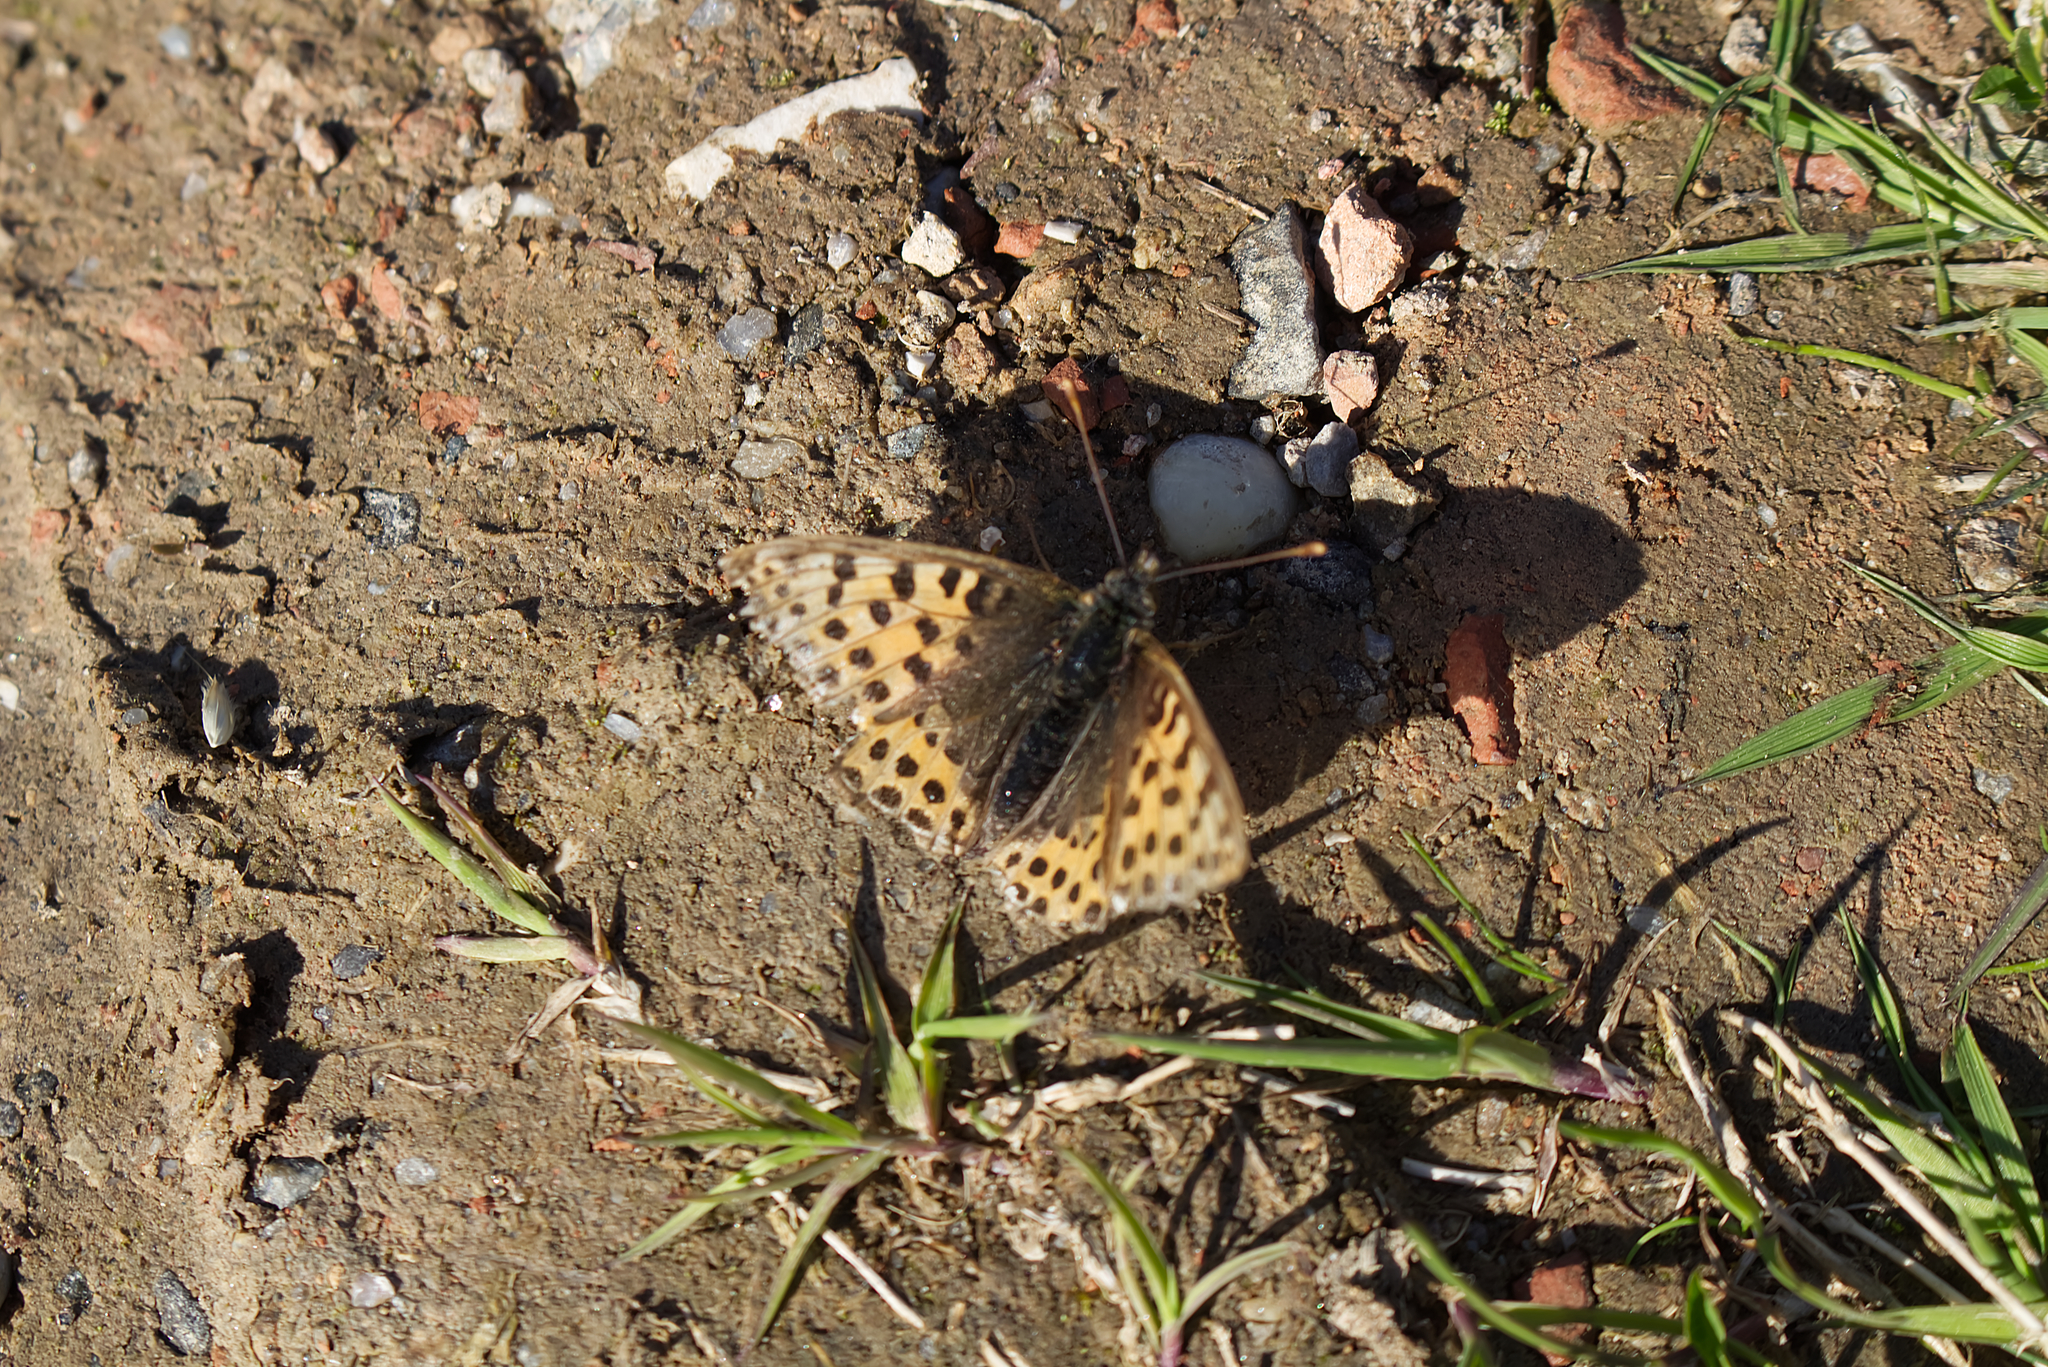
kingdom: Animalia
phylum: Arthropoda
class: Insecta
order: Lepidoptera
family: Nymphalidae
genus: Issoria
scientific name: Issoria lathonia
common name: Queen of spain fritillary
